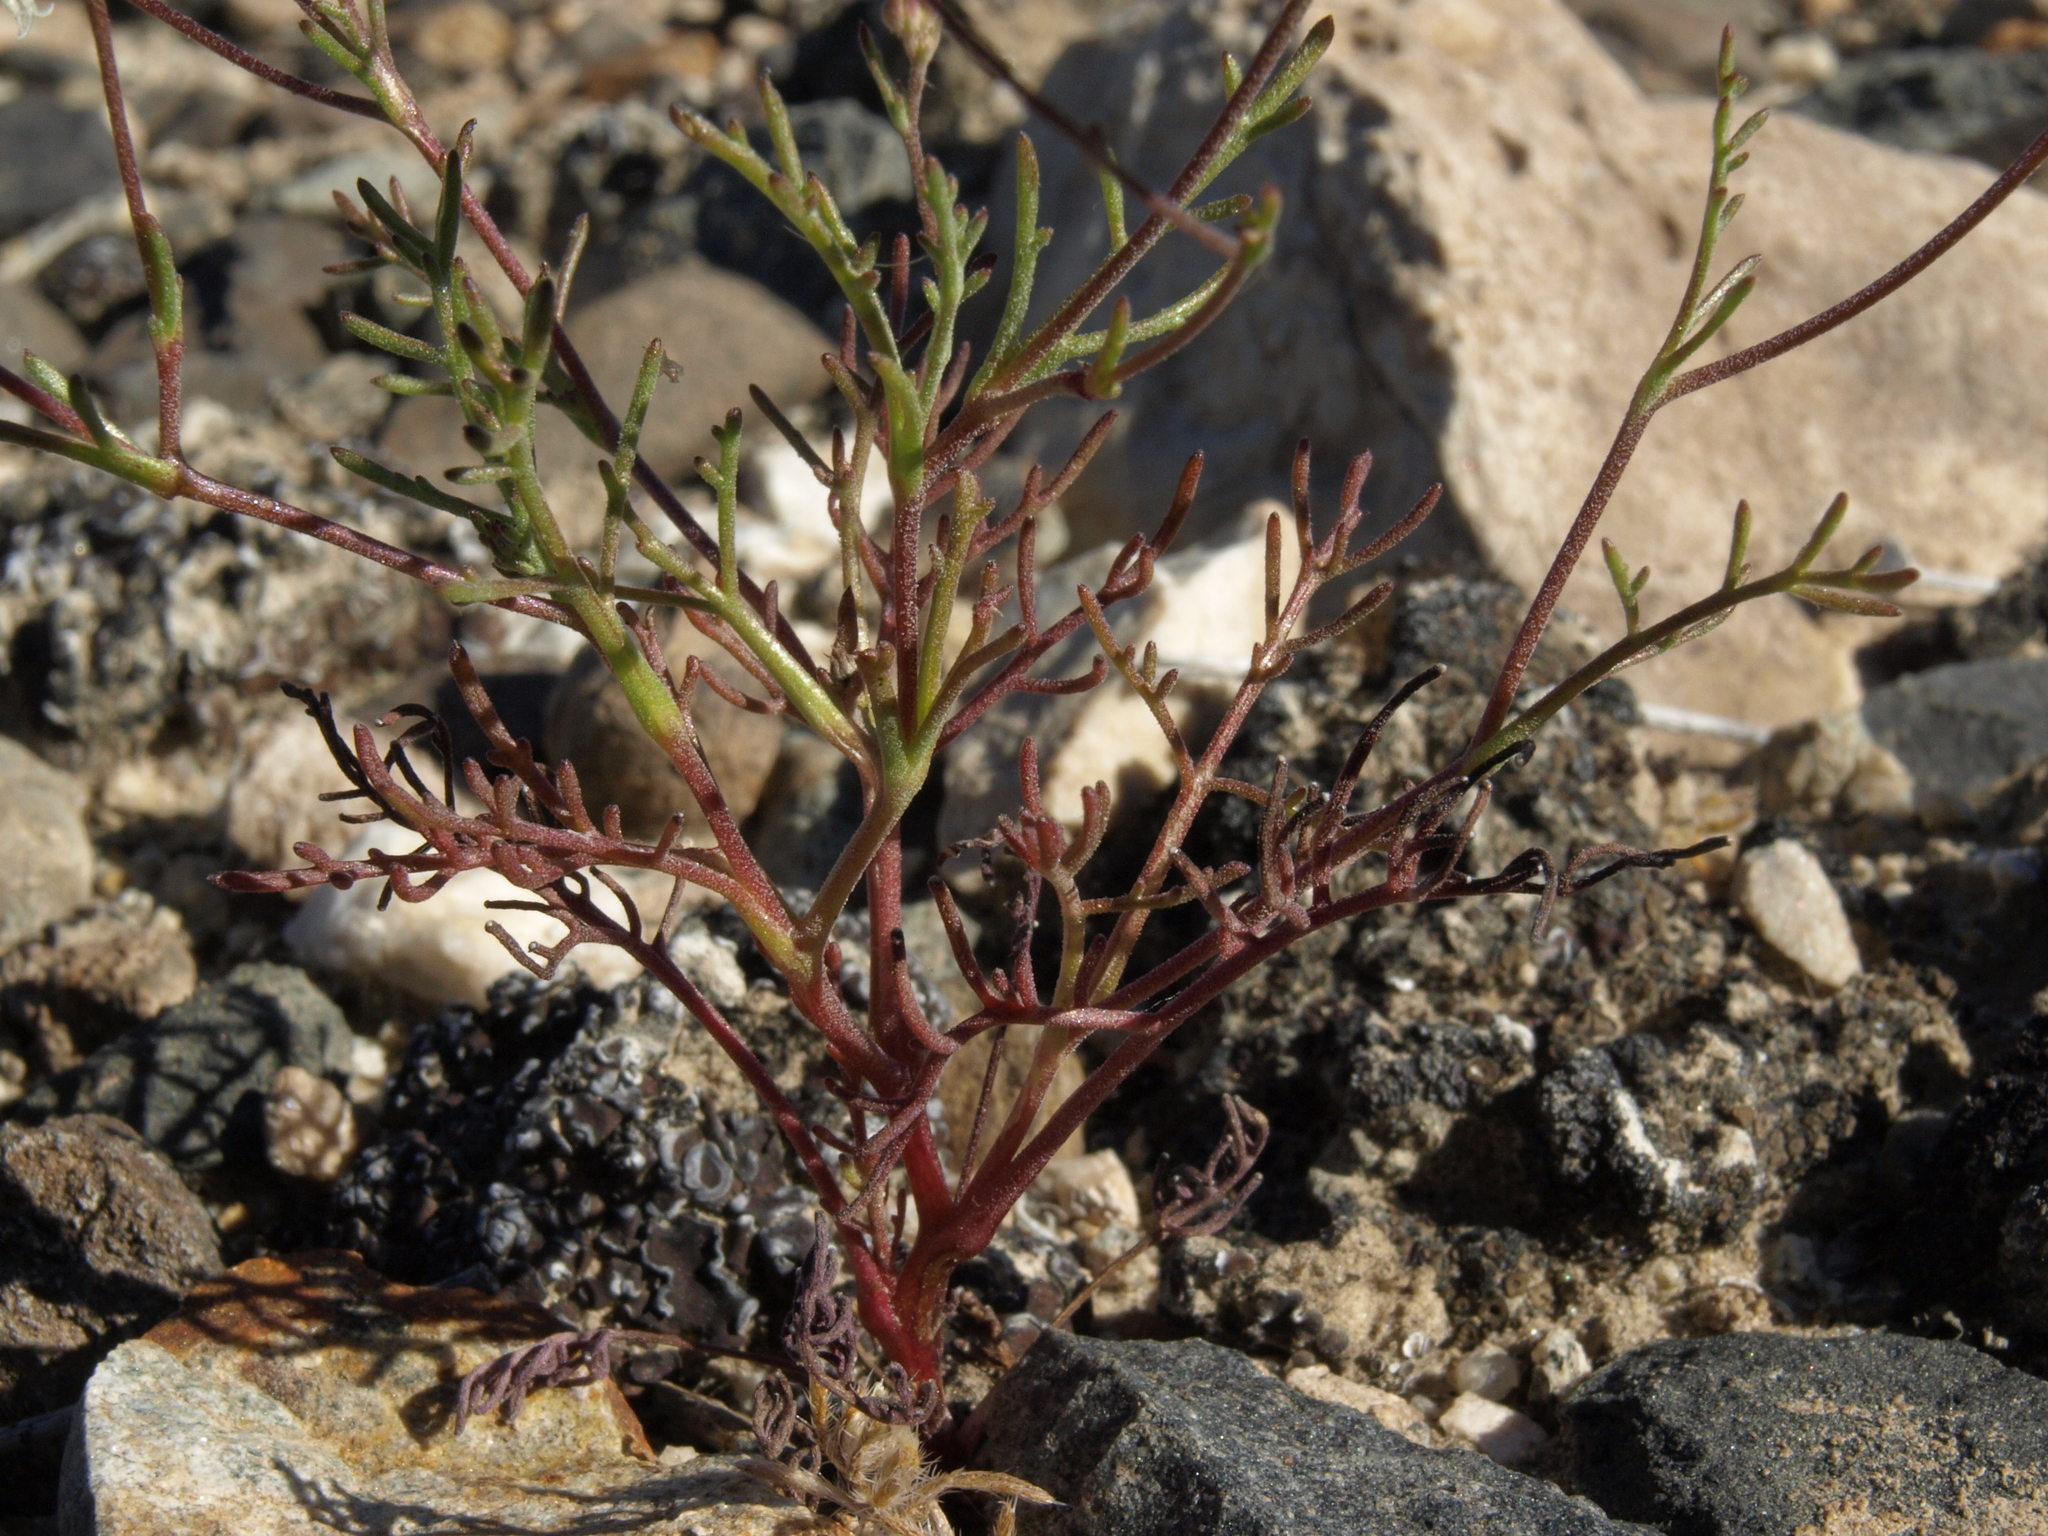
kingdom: Plantae
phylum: Tracheophyta
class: Magnoliopsida
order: Asterales
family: Asteraceae
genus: Chaenactis
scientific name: Chaenactis carphoclinia
